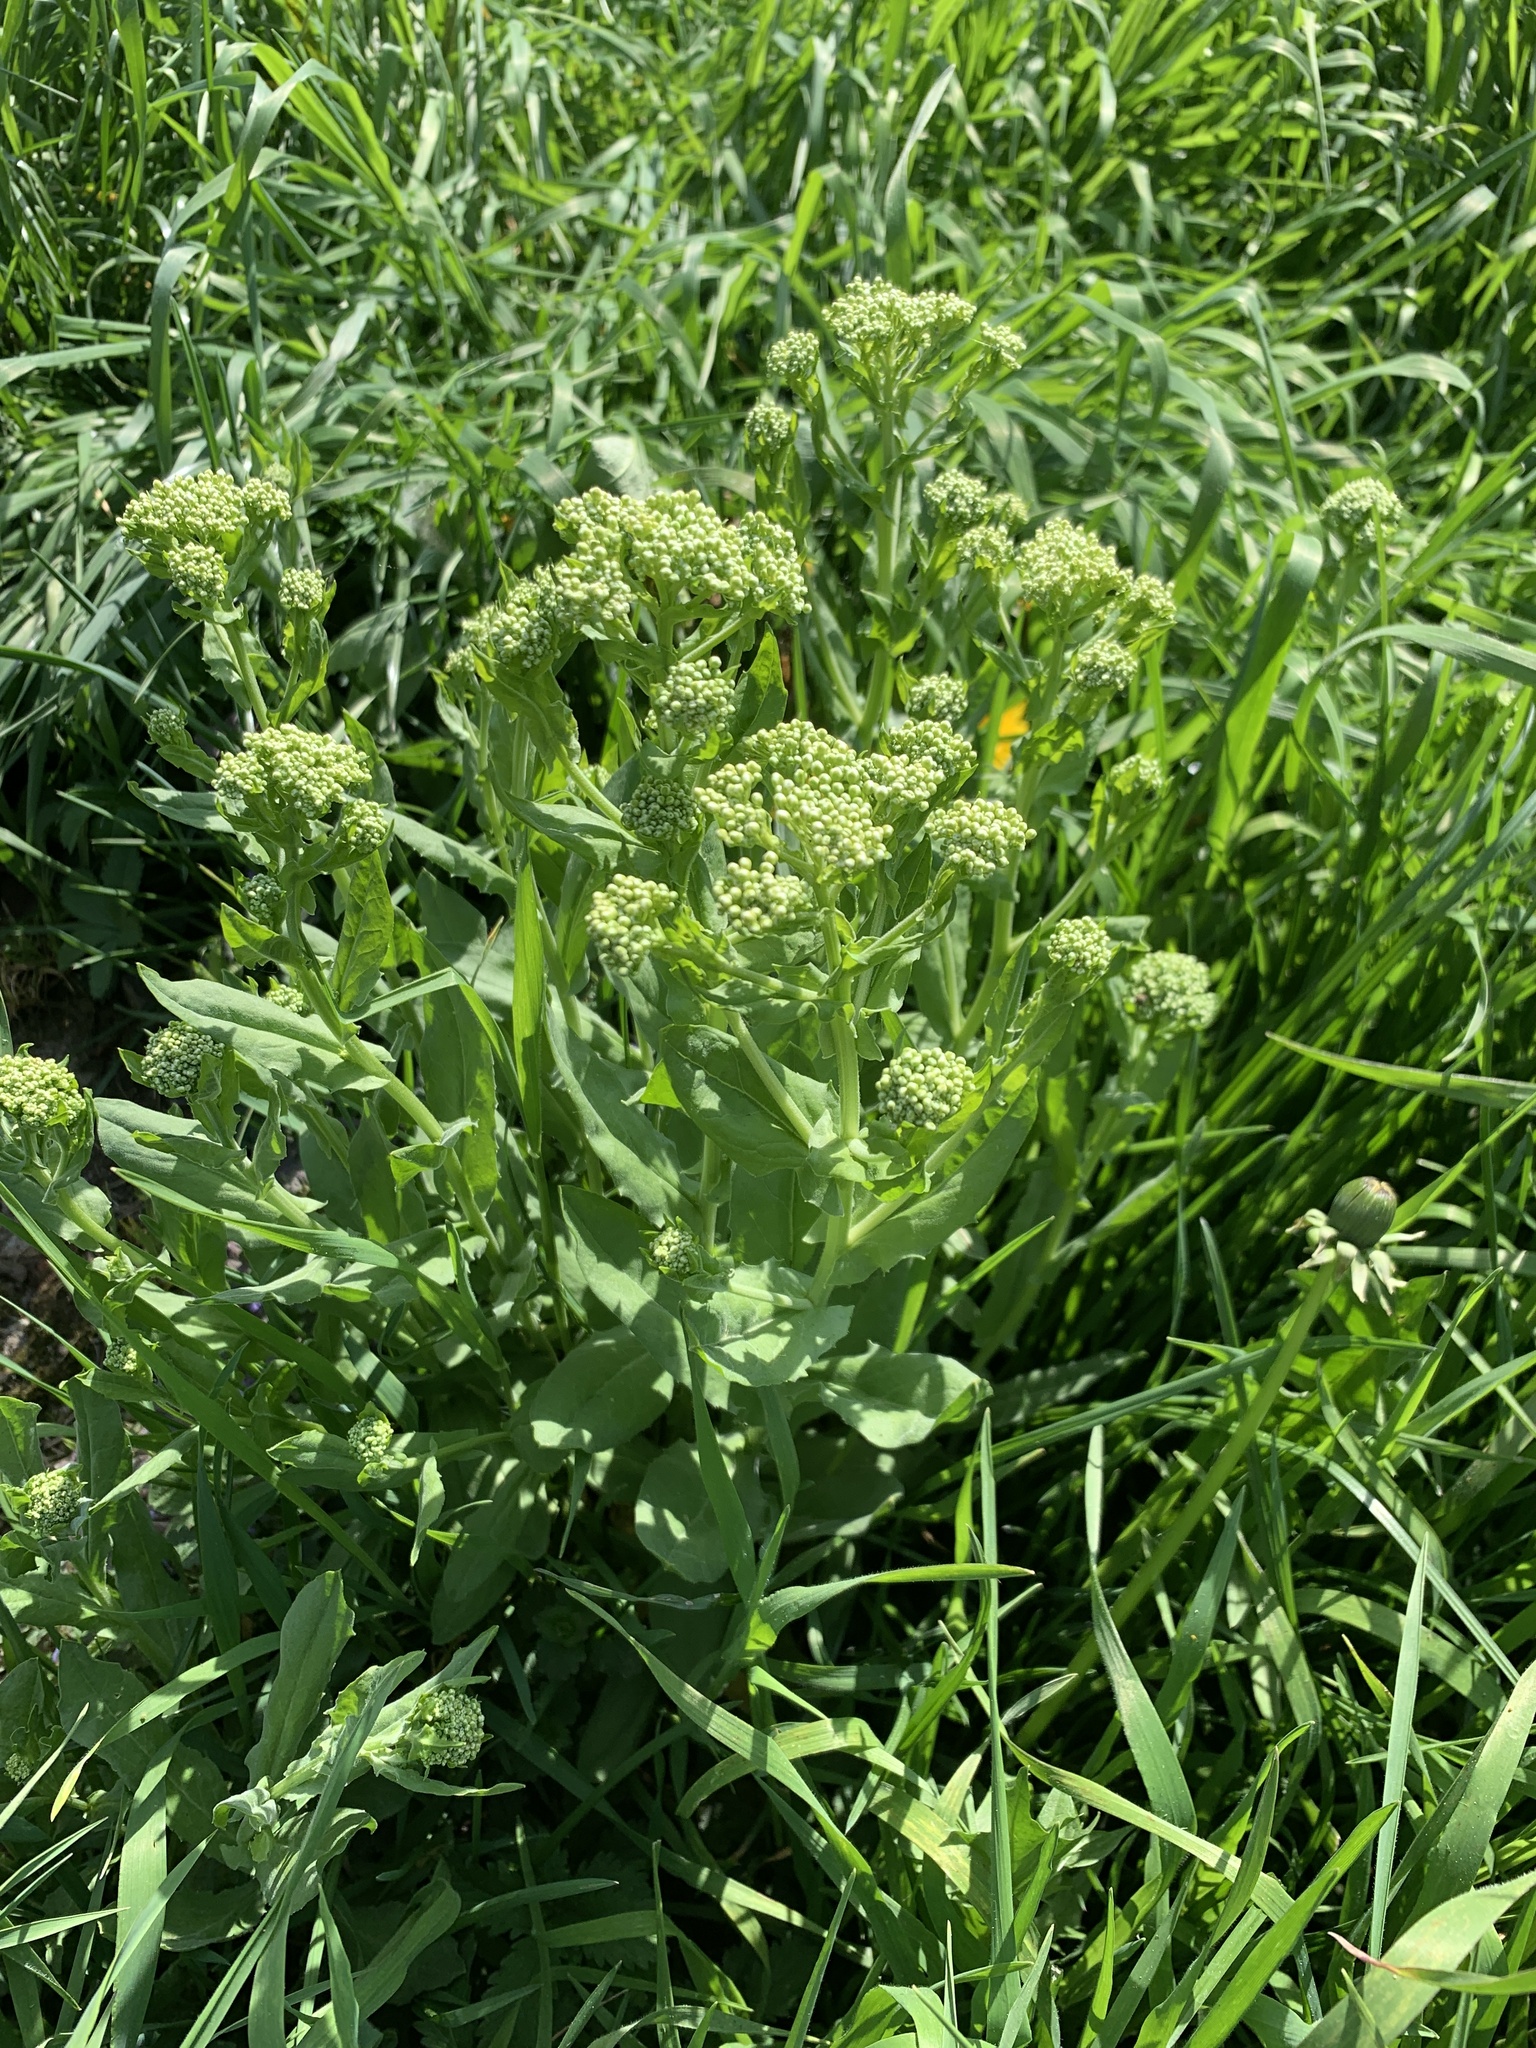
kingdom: Plantae
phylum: Tracheophyta
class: Magnoliopsida
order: Brassicales
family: Brassicaceae
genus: Lepidium
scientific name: Lepidium draba
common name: Hoary cress
